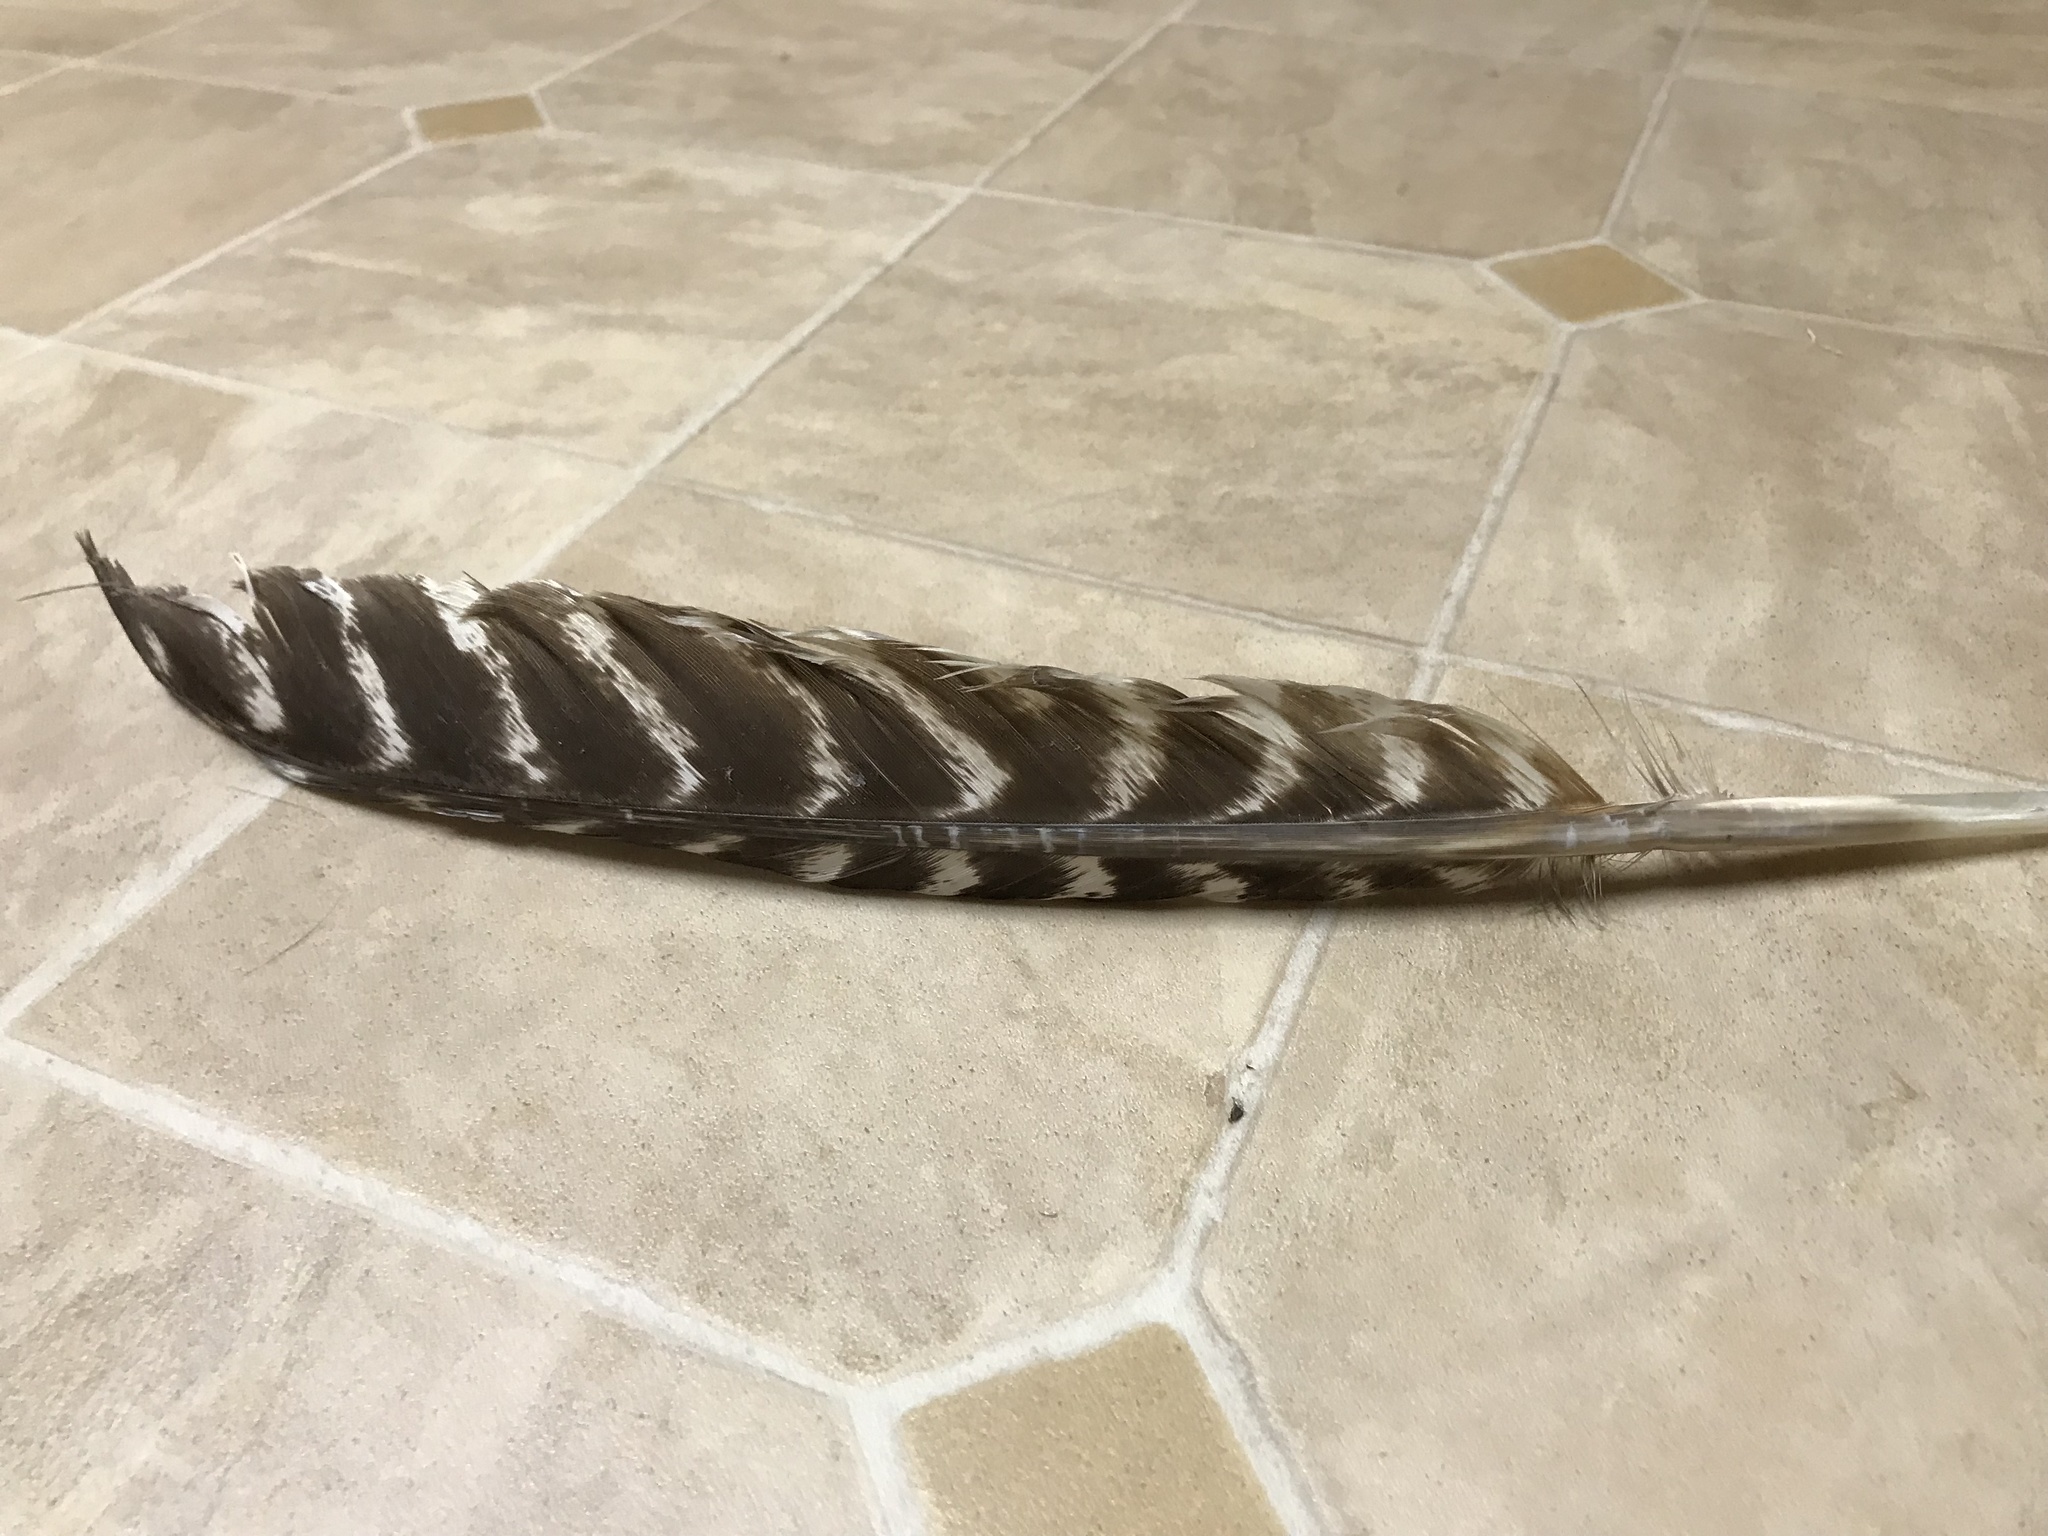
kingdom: Animalia
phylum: Chordata
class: Aves
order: Galliformes
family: Phasianidae
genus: Meleagris
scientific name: Meleagris gallopavo
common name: Wild turkey
